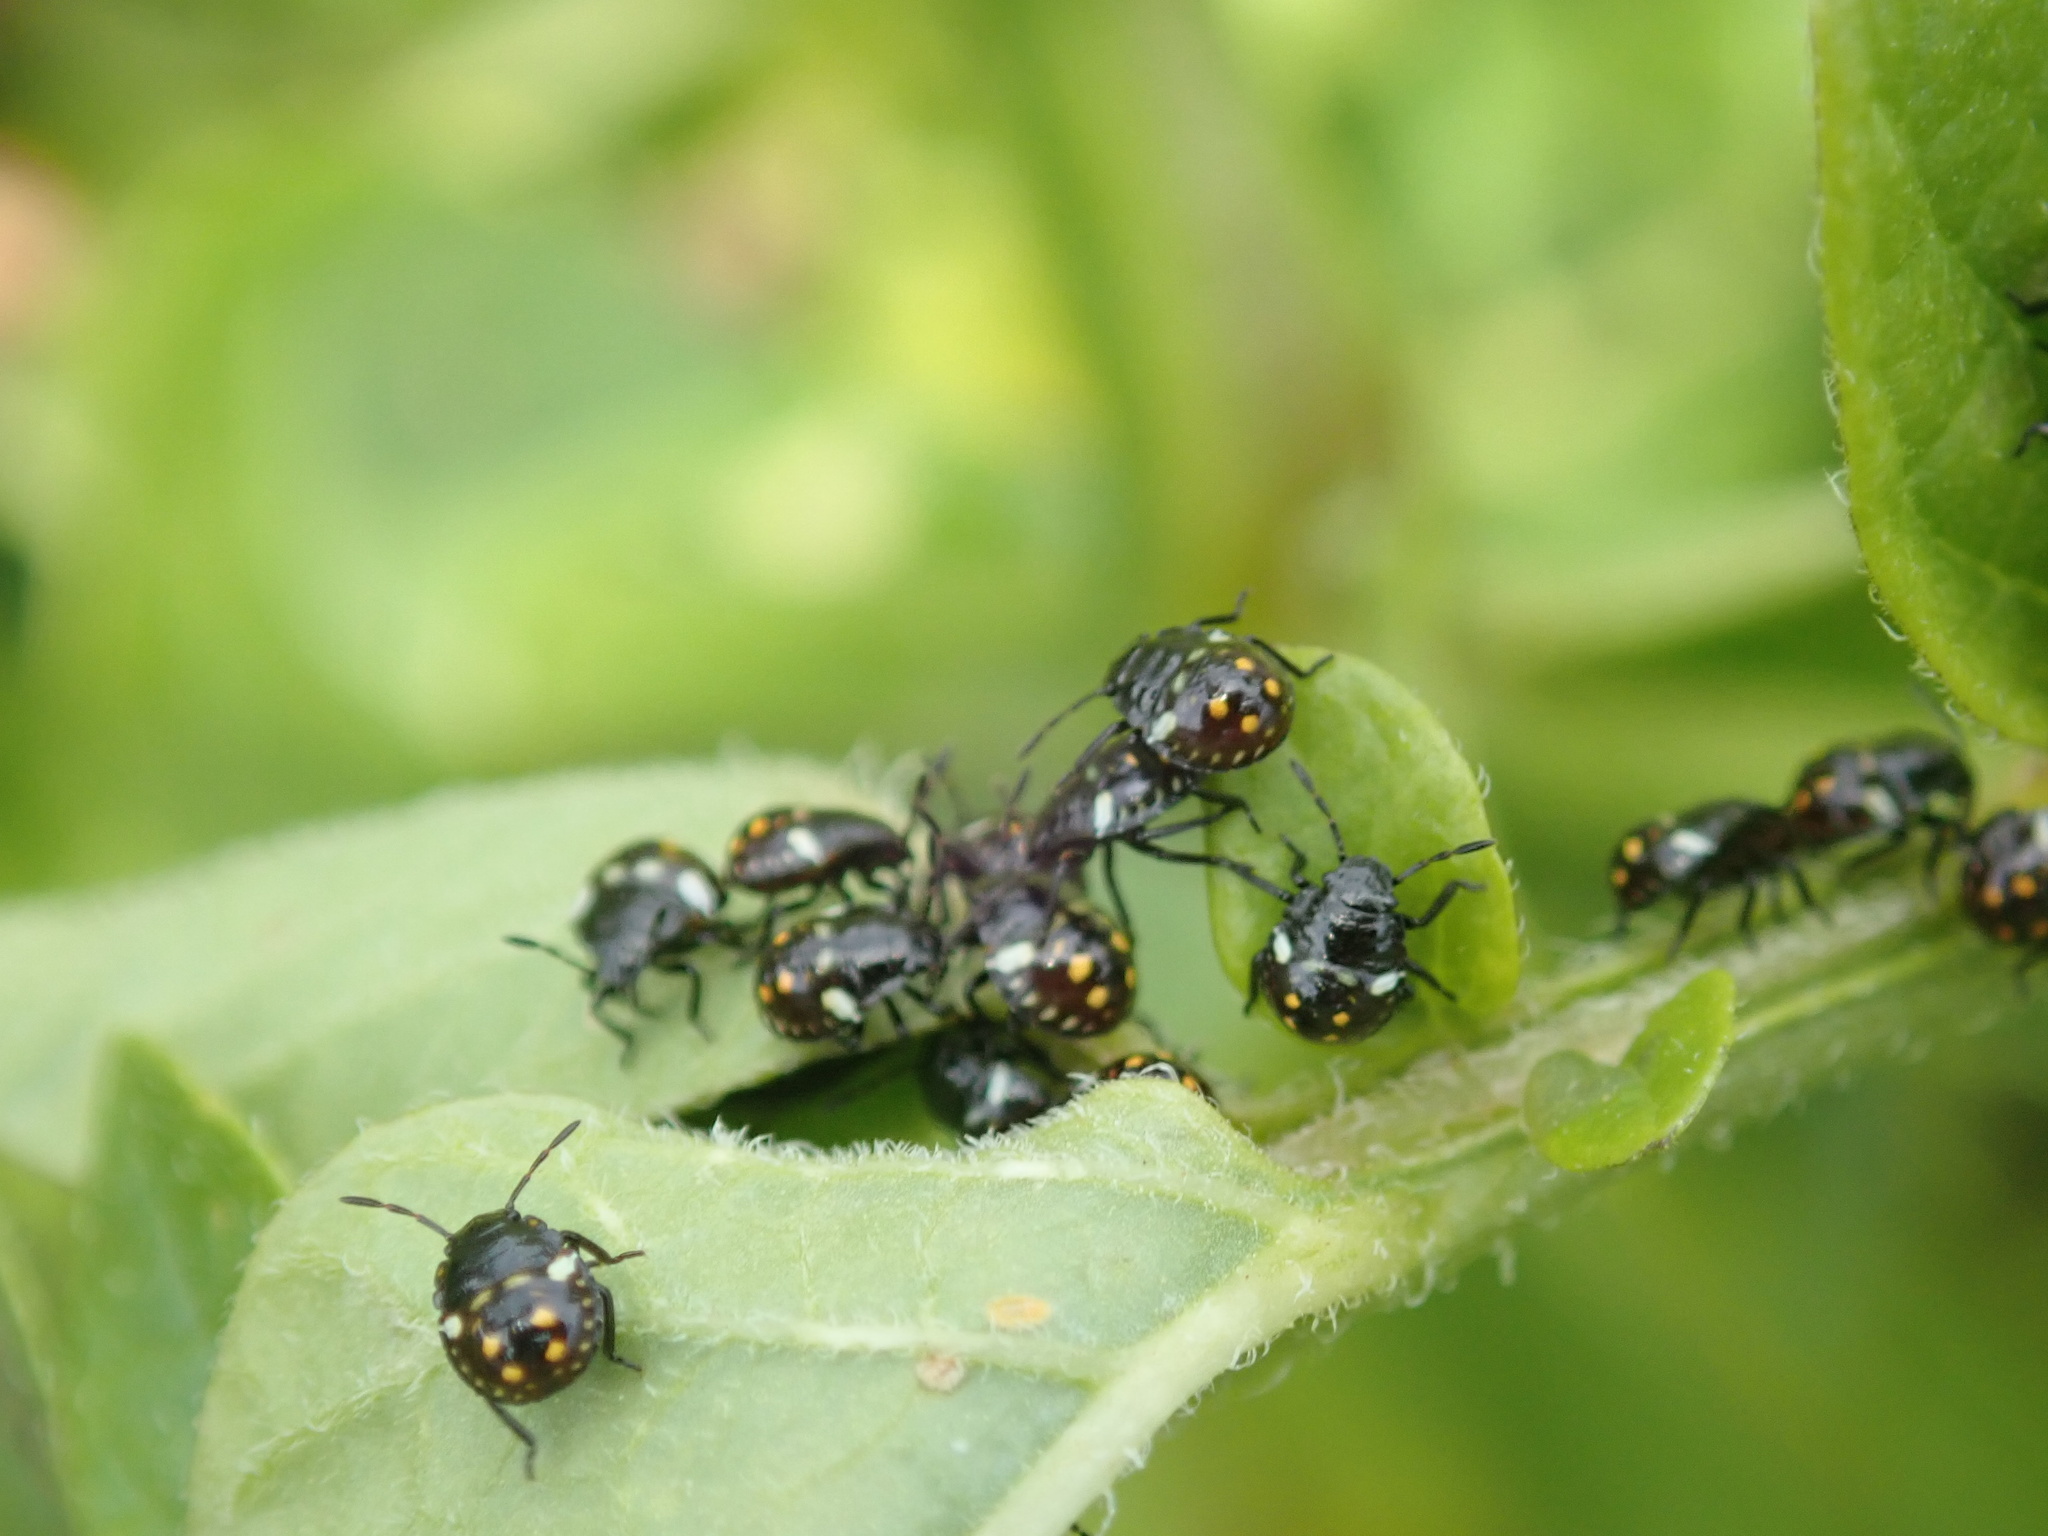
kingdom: Animalia
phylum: Arthropoda
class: Insecta
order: Hemiptera
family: Pentatomidae
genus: Nezara
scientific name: Nezara viridula
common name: Southern green stink bug
